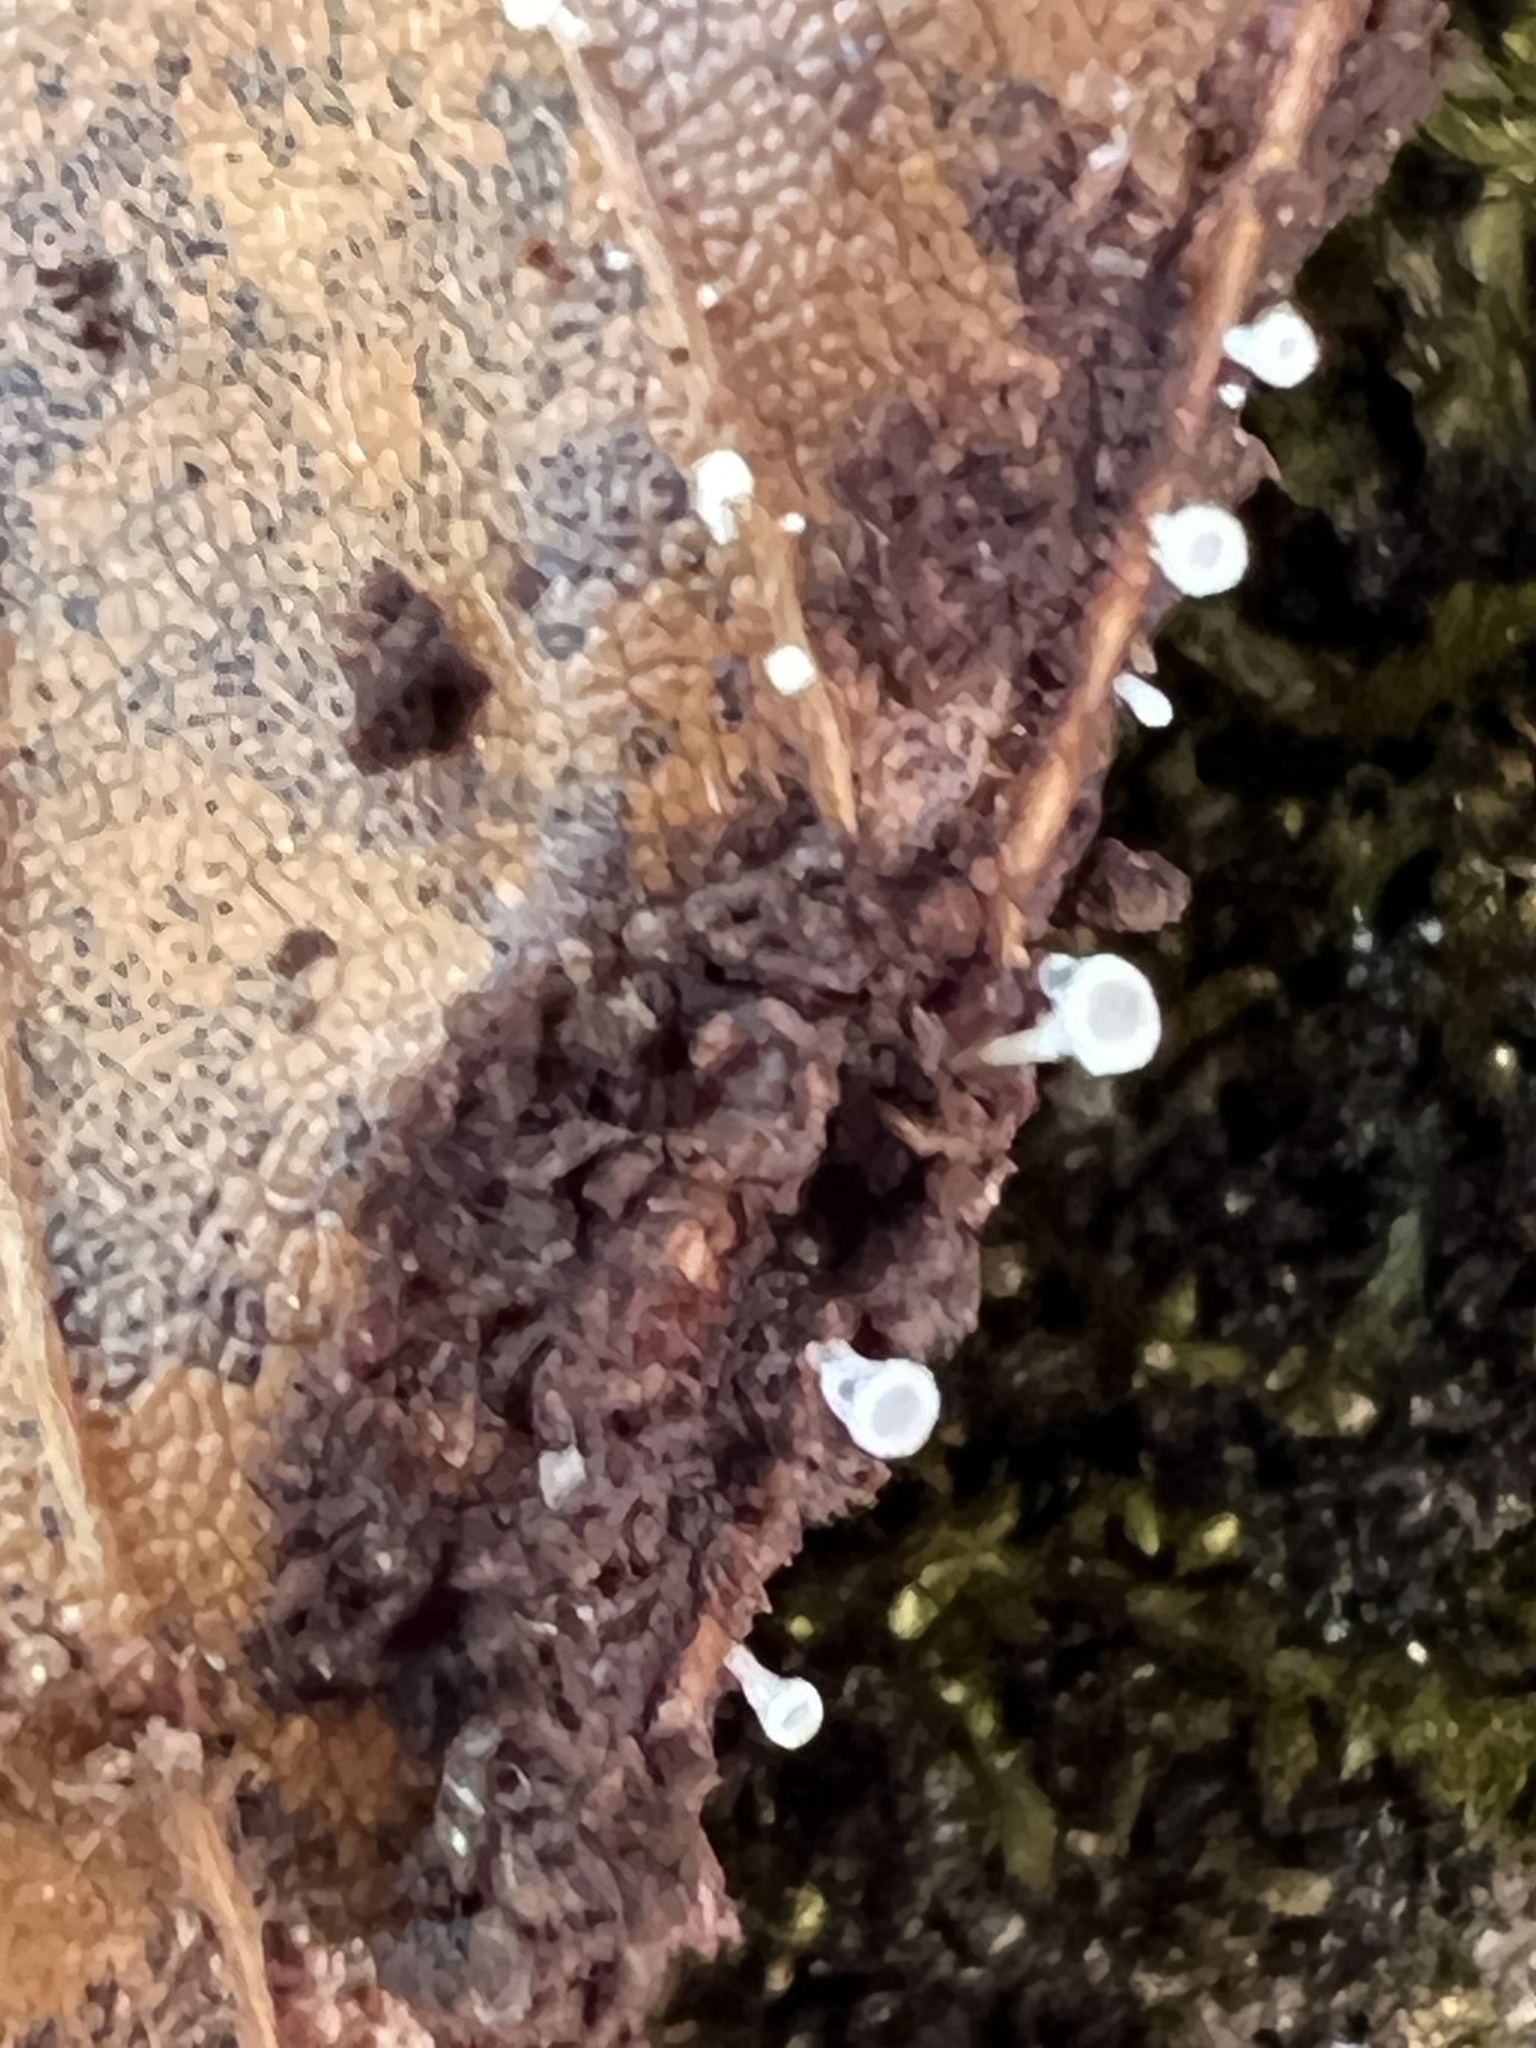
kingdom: Fungi
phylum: Ascomycota
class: Leotiomycetes
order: Helotiales
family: Lachnaceae
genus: Lachnum
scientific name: Lachnum
